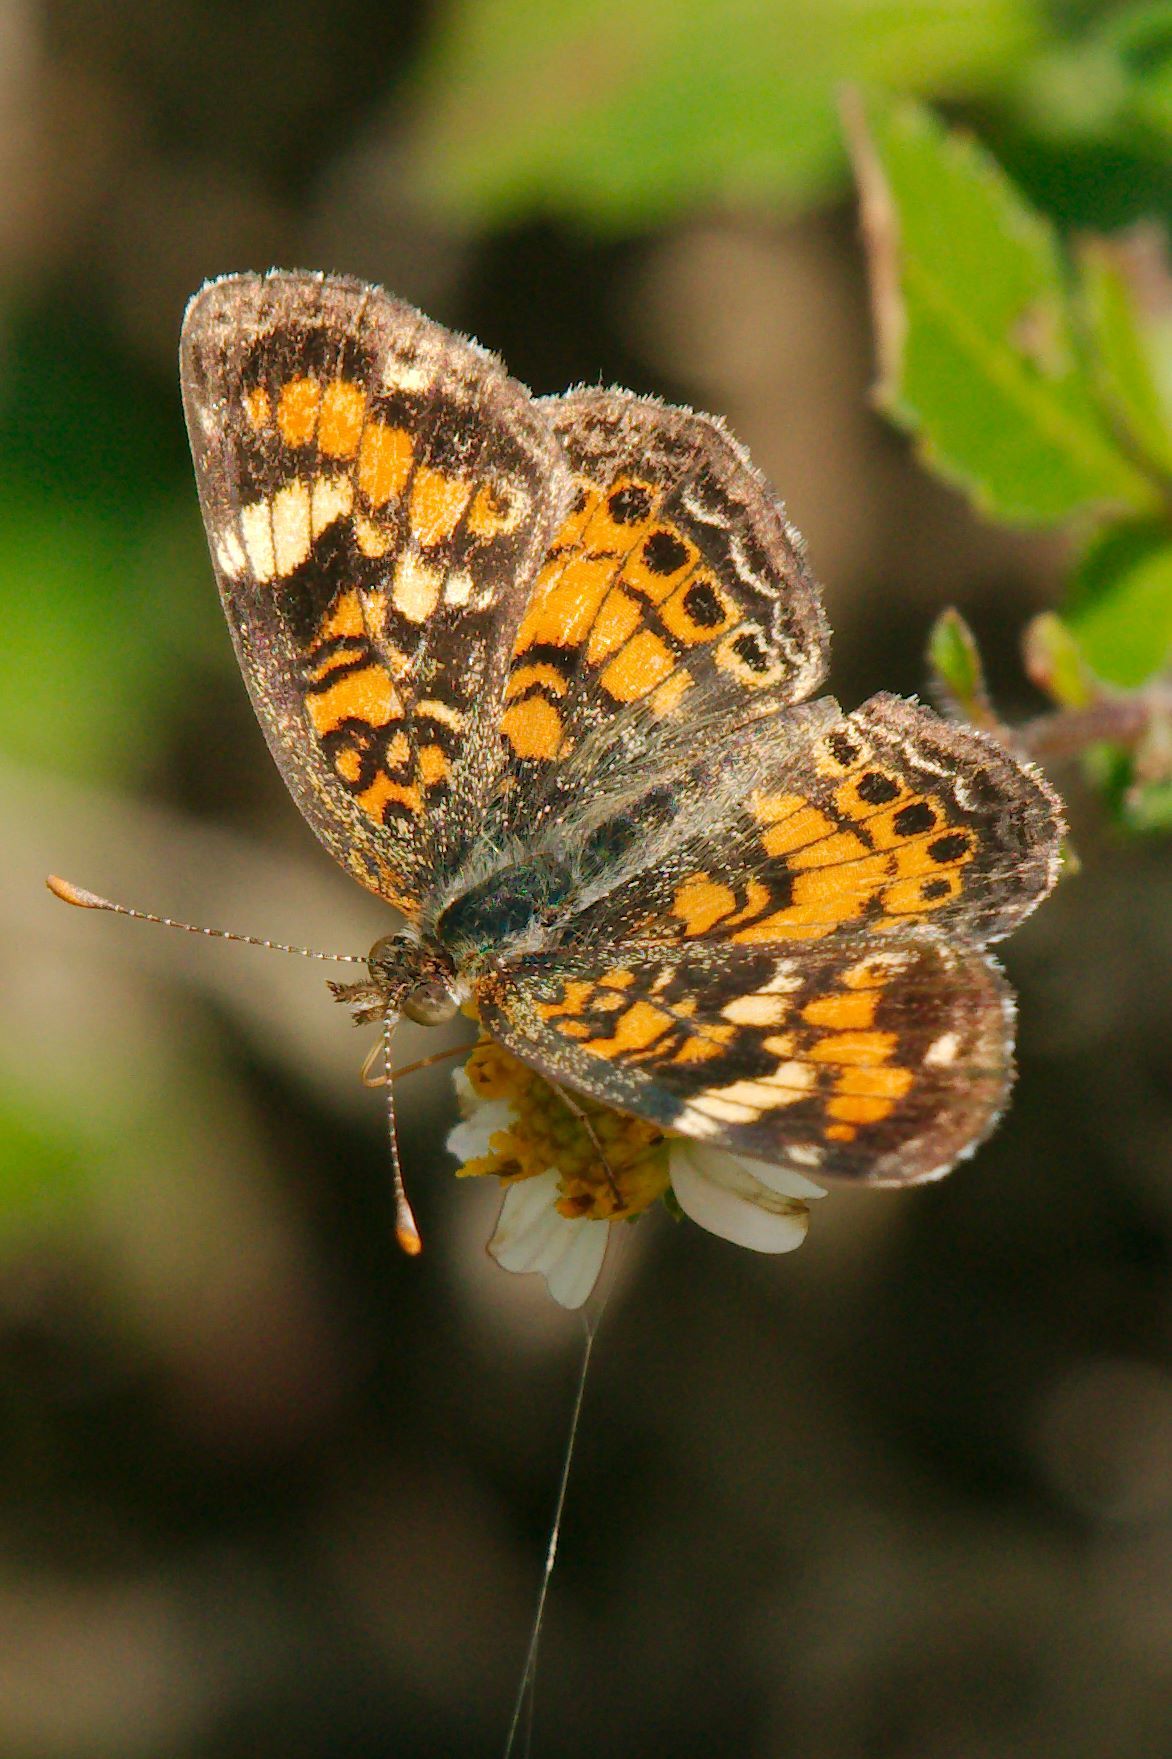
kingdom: Animalia
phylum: Arthropoda
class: Insecta
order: Lepidoptera
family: Nymphalidae
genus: Phyciodes
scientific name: Phyciodes phaon
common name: Phaon crescent
